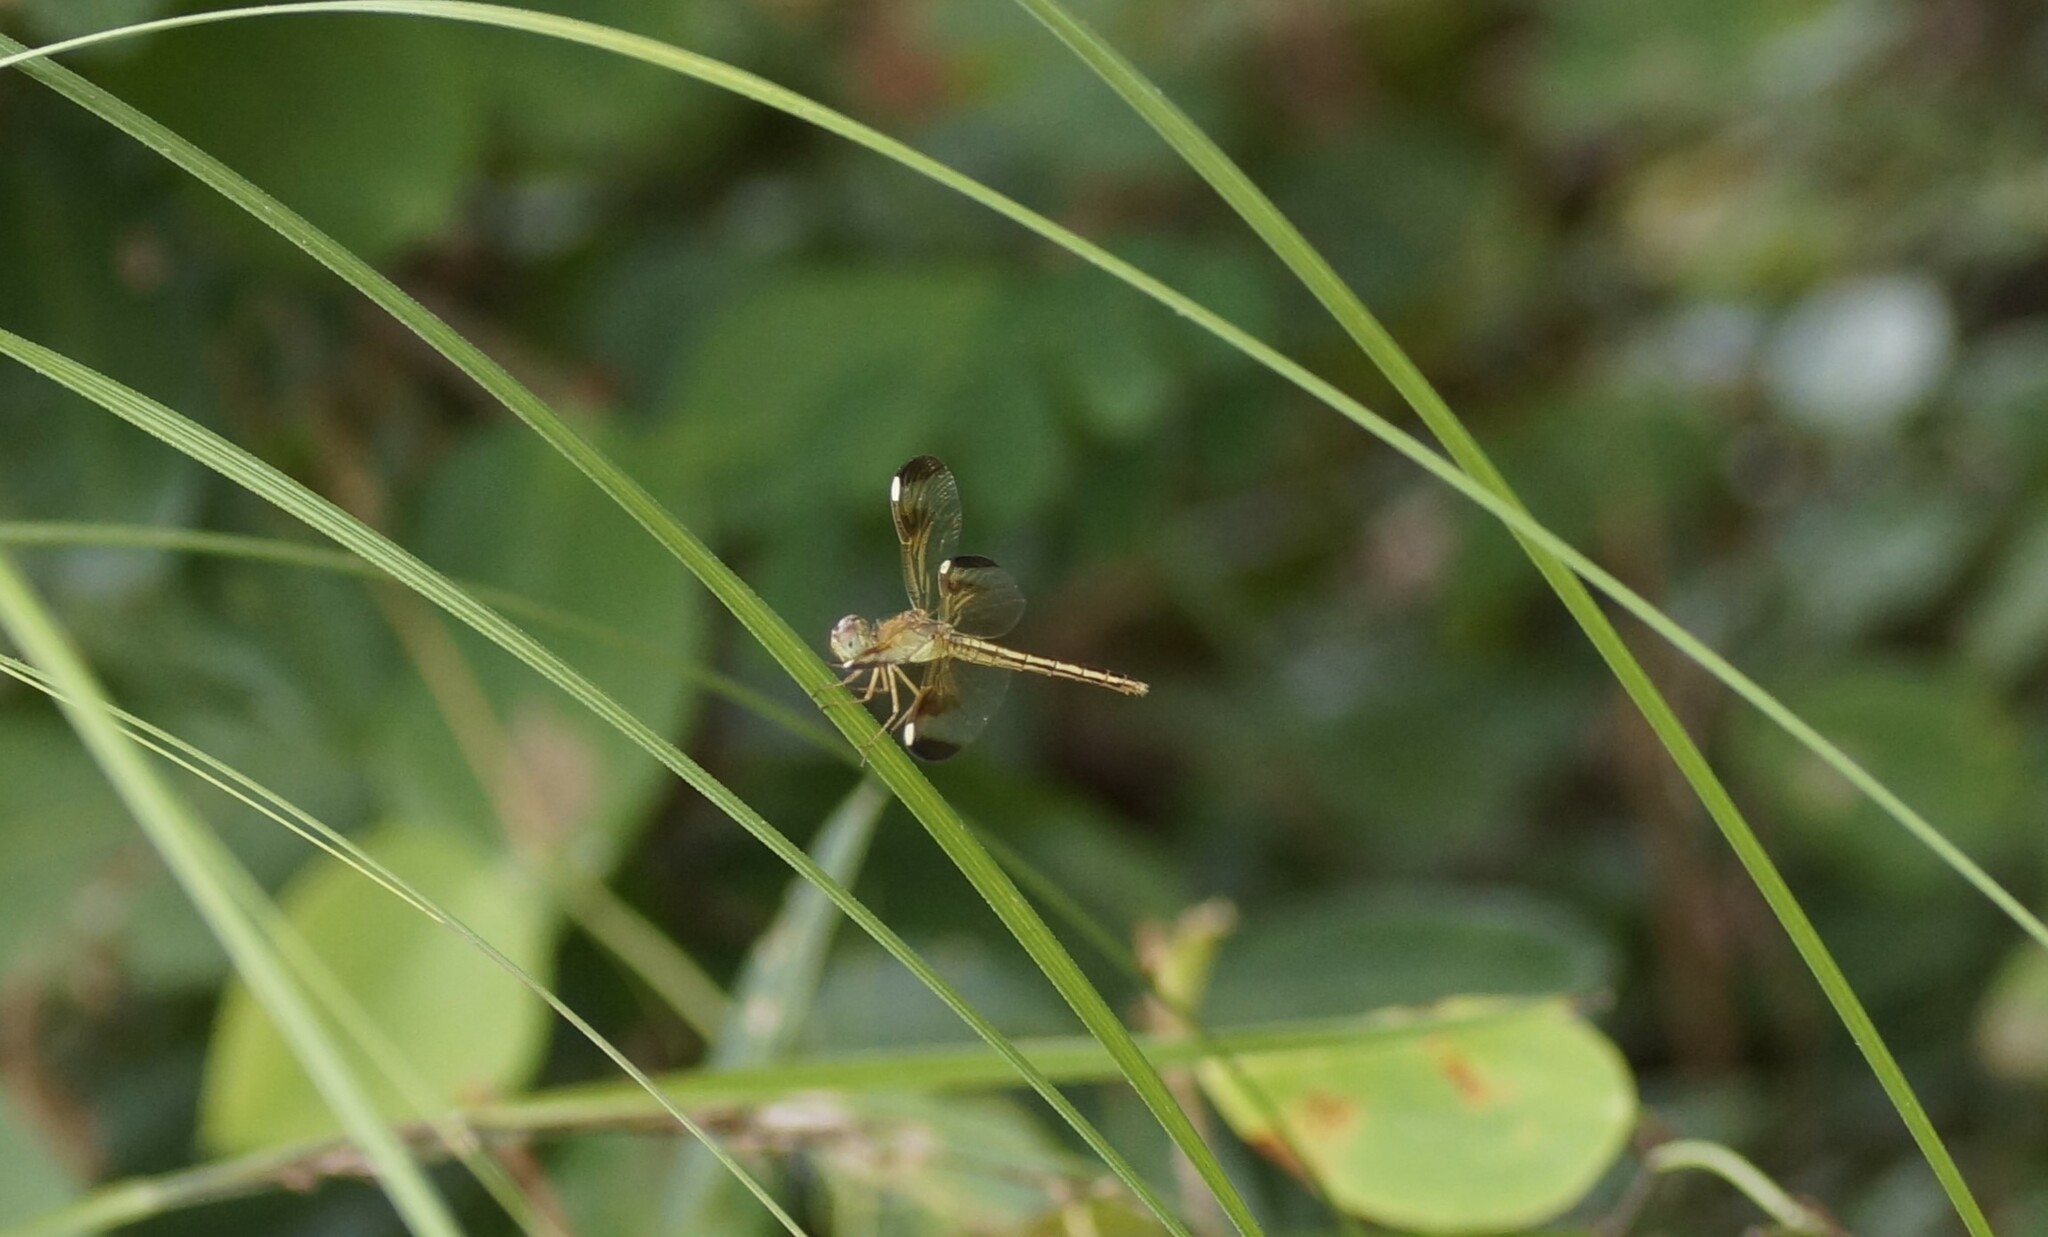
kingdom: Animalia
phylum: Arthropoda
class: Insecta
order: Odonata
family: Libellulidae
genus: Neurothemis
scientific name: Neurothemis stigmatizans
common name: Painted grasshawk
